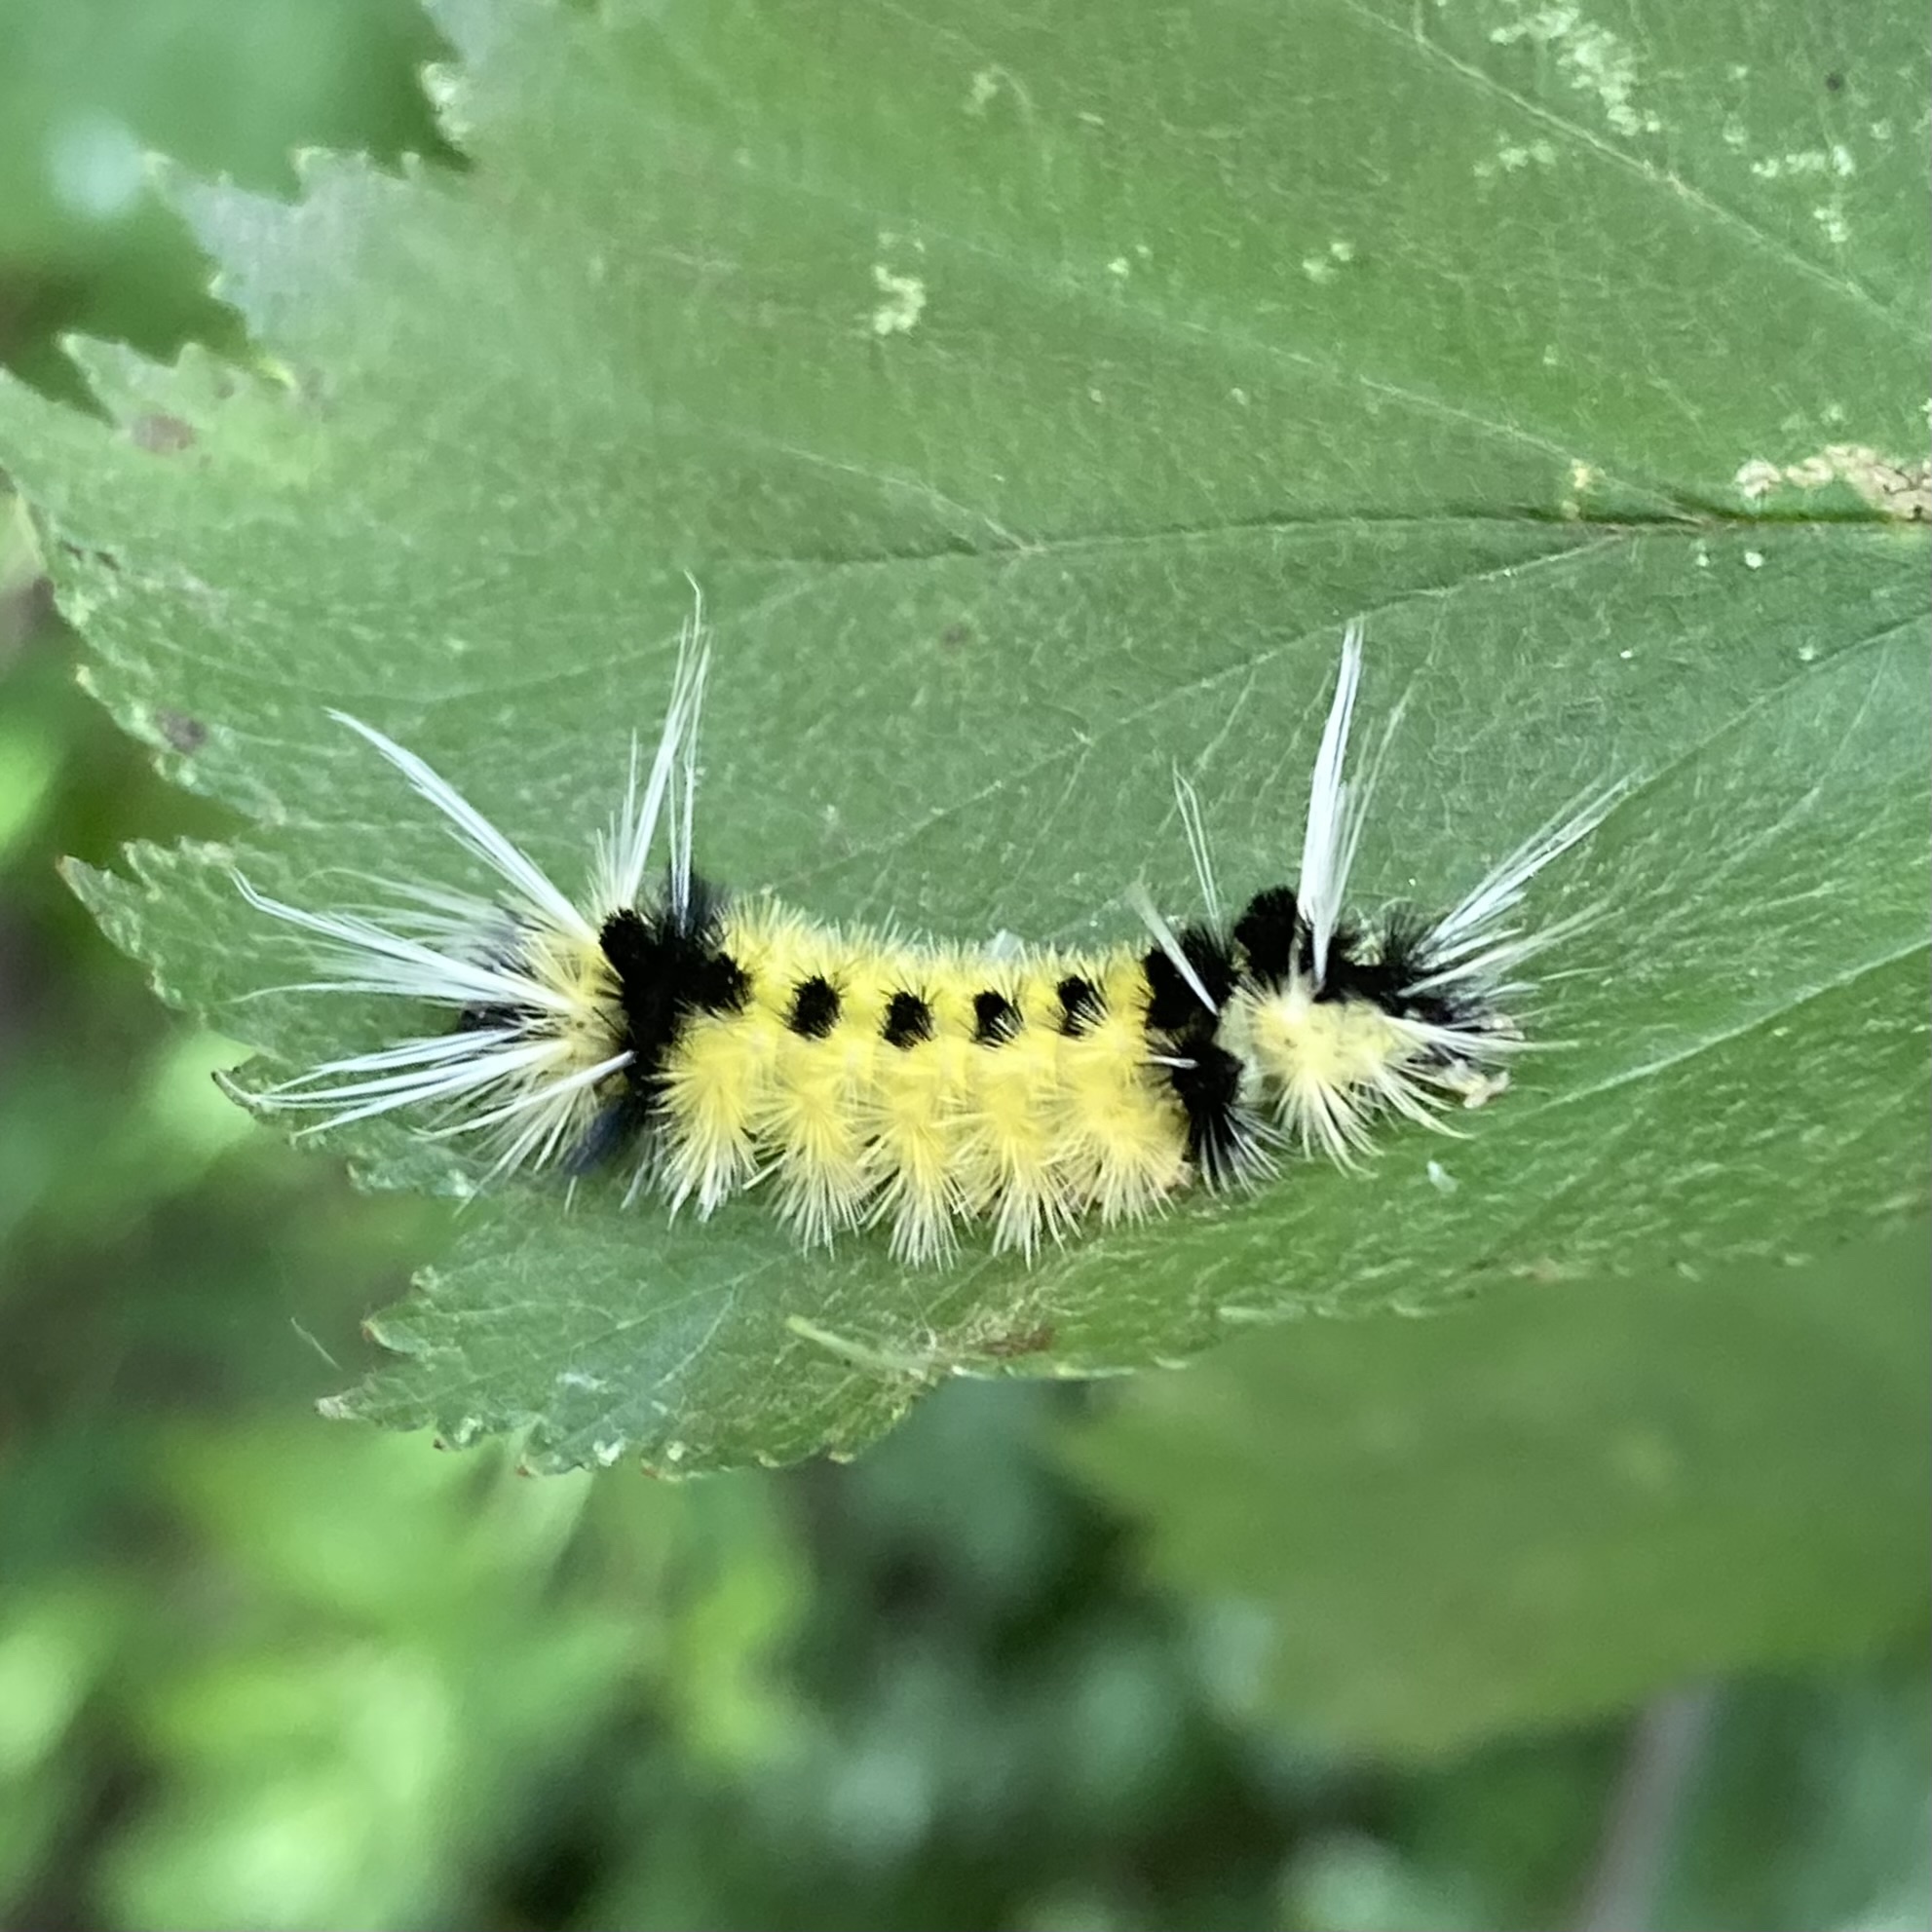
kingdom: Animalia
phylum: Arthropoda
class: Insecta
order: Lepidoptera
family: Erebidae
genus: Lophocampa
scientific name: Lophocampa maculata
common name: Spotted tussock moth
